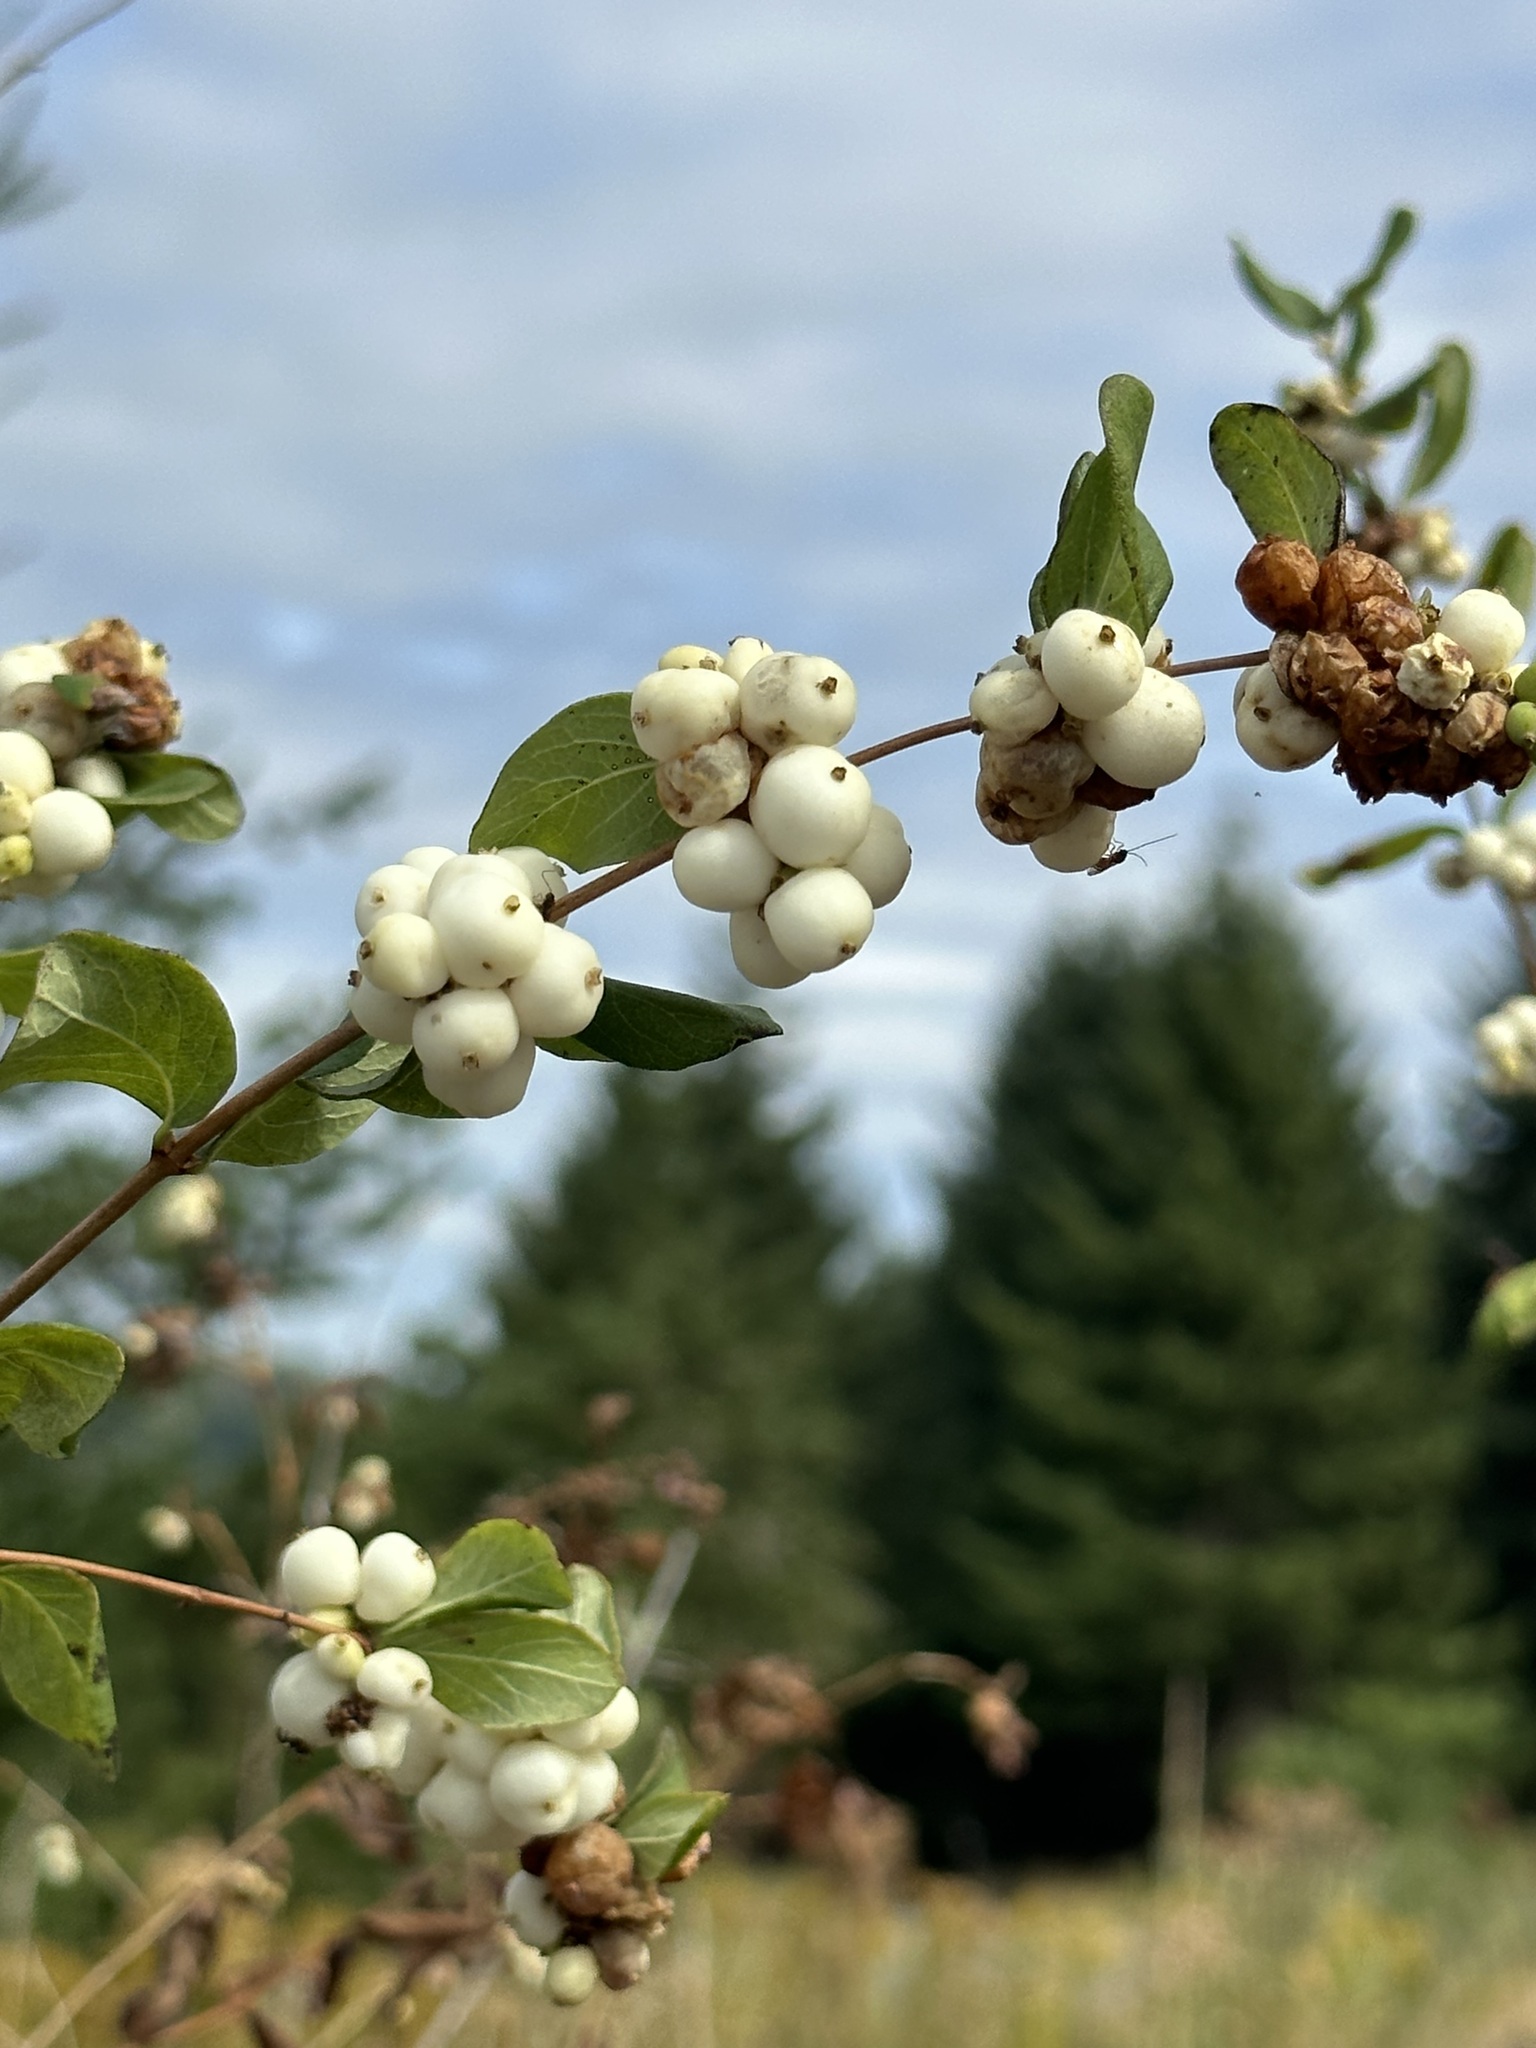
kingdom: Plantae
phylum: Tracheophyta
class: Magnoliopsida
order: Dipsacales
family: Caprifoliaceae
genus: Symphoricarpos
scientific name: Symphoricarpos albus
